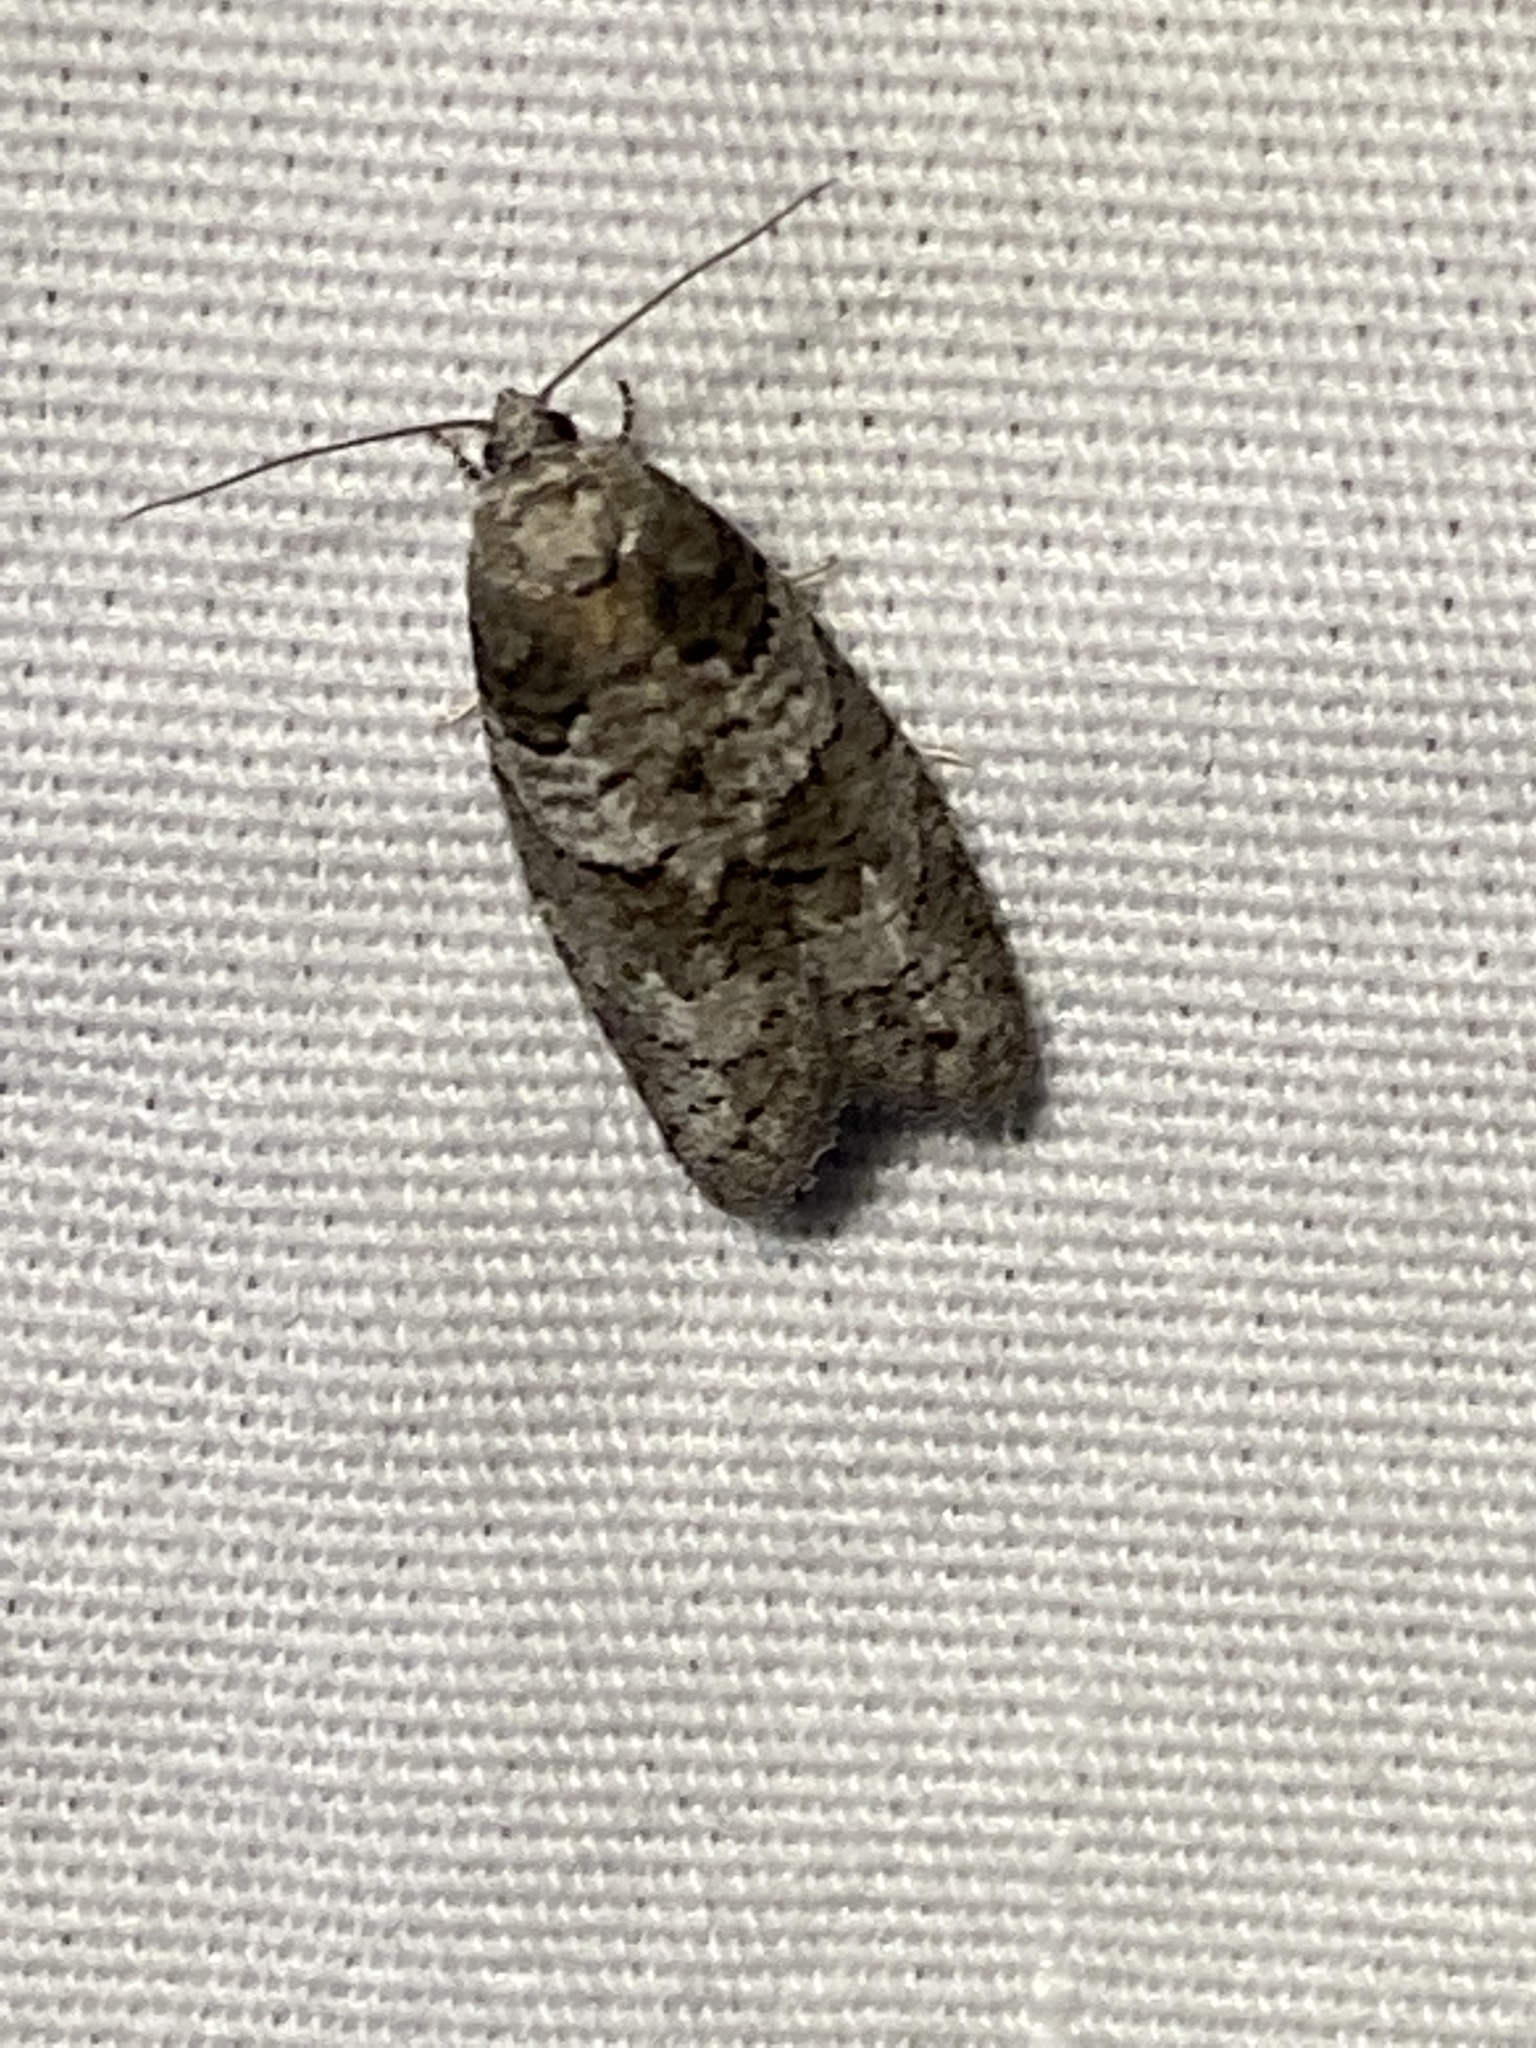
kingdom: Animalia
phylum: Arthropoda
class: Insecta
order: Lepidoptera
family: Tortricidae
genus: Decodes
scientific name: Decodes basiplagana
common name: Gray-marked tortricid
